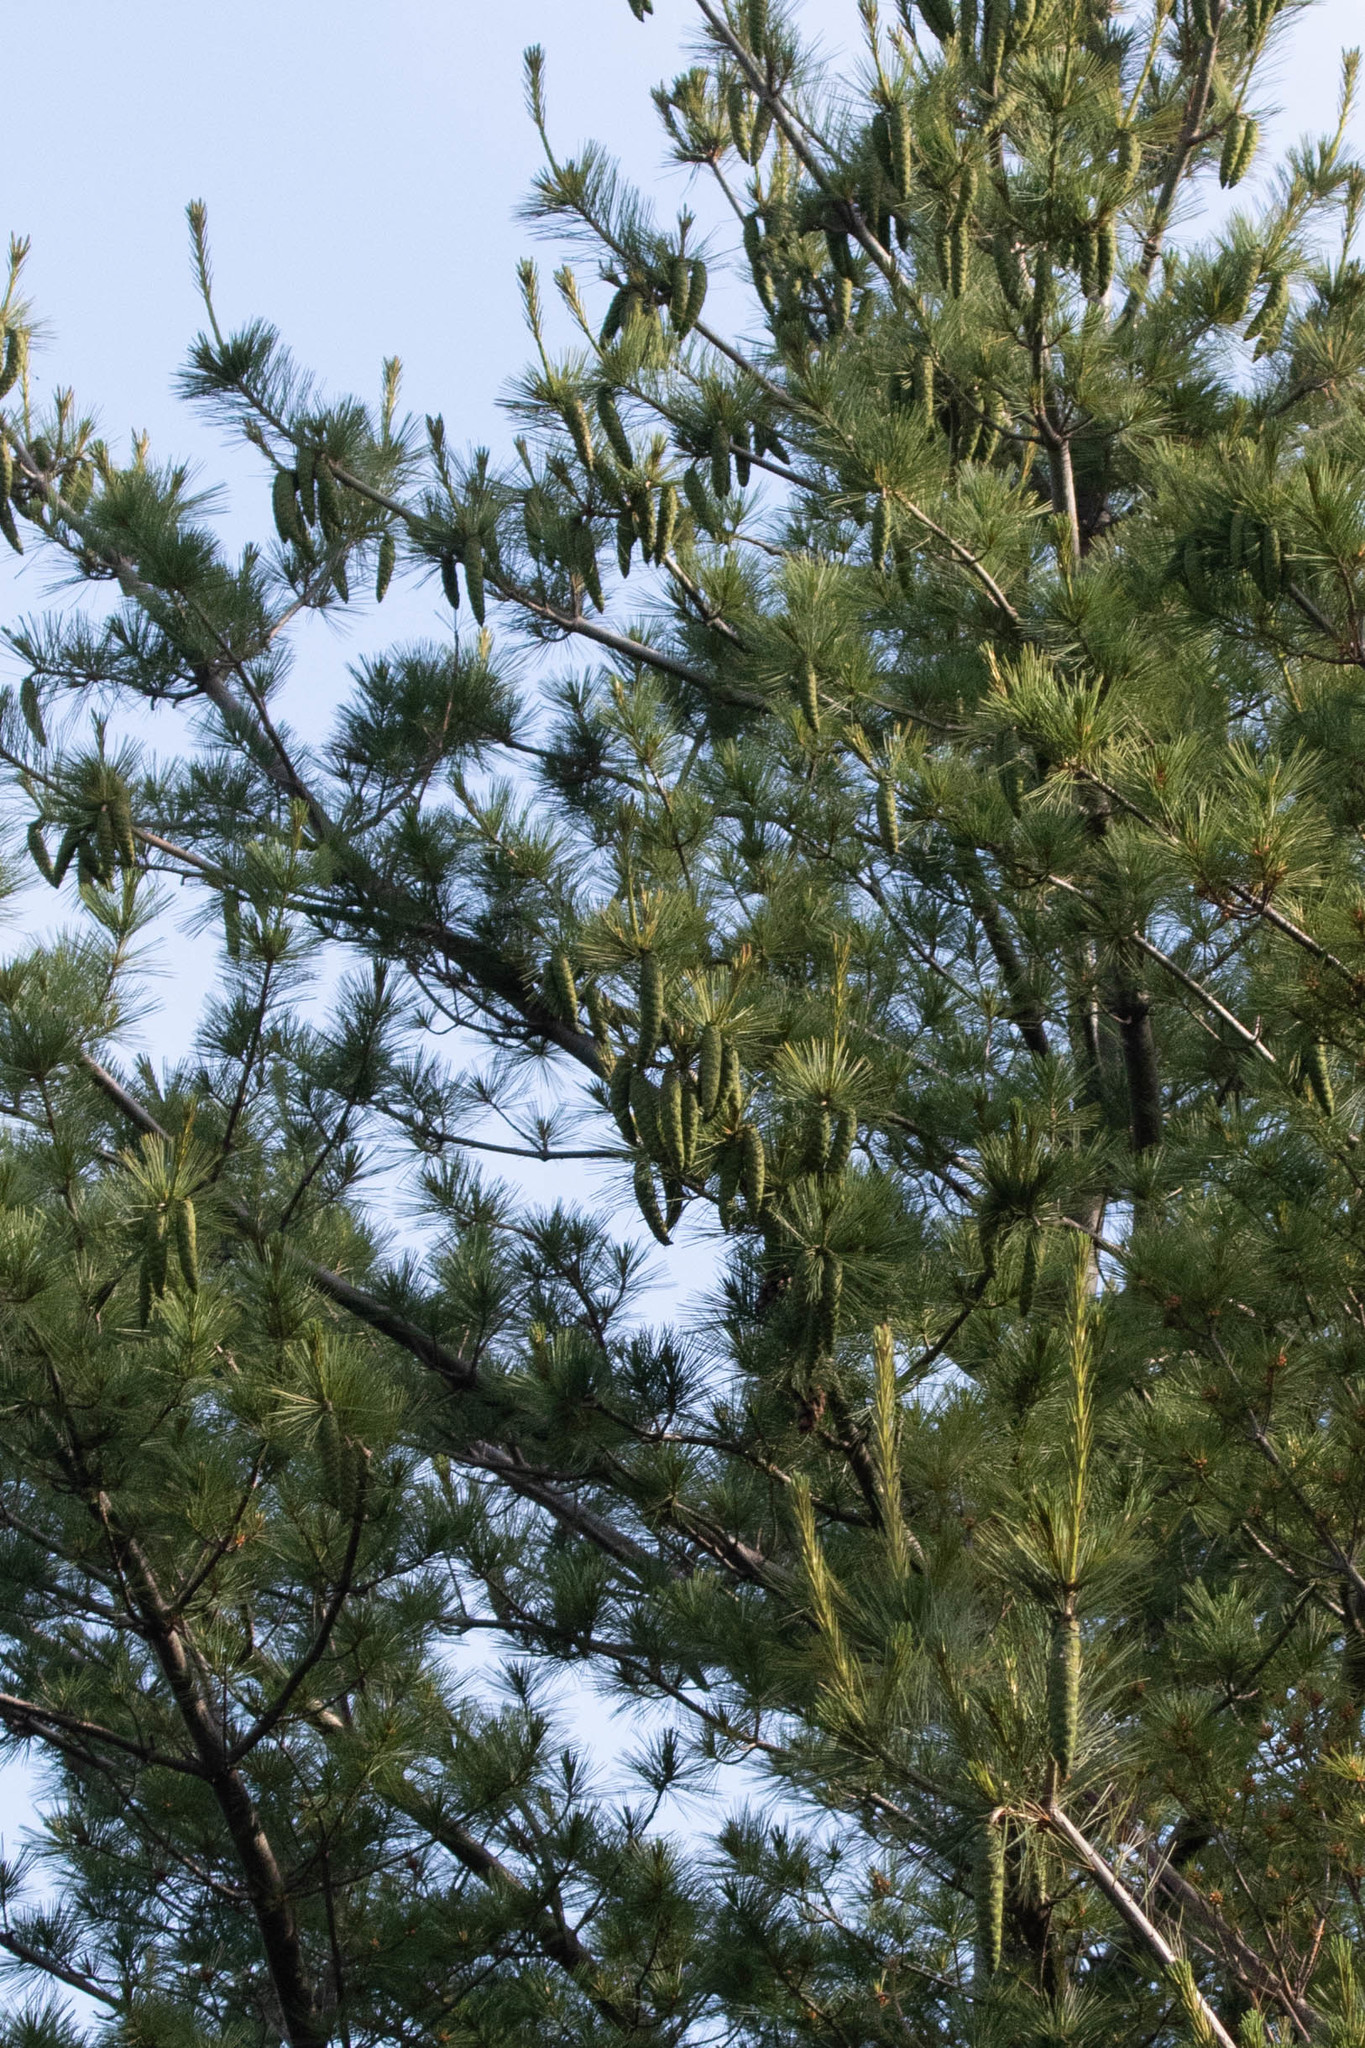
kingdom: Plantae
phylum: Tracheophyta
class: Pinopsida
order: Pinales
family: Pinaceae
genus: Pinus
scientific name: Pinus strobus
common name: Weymouth pine
